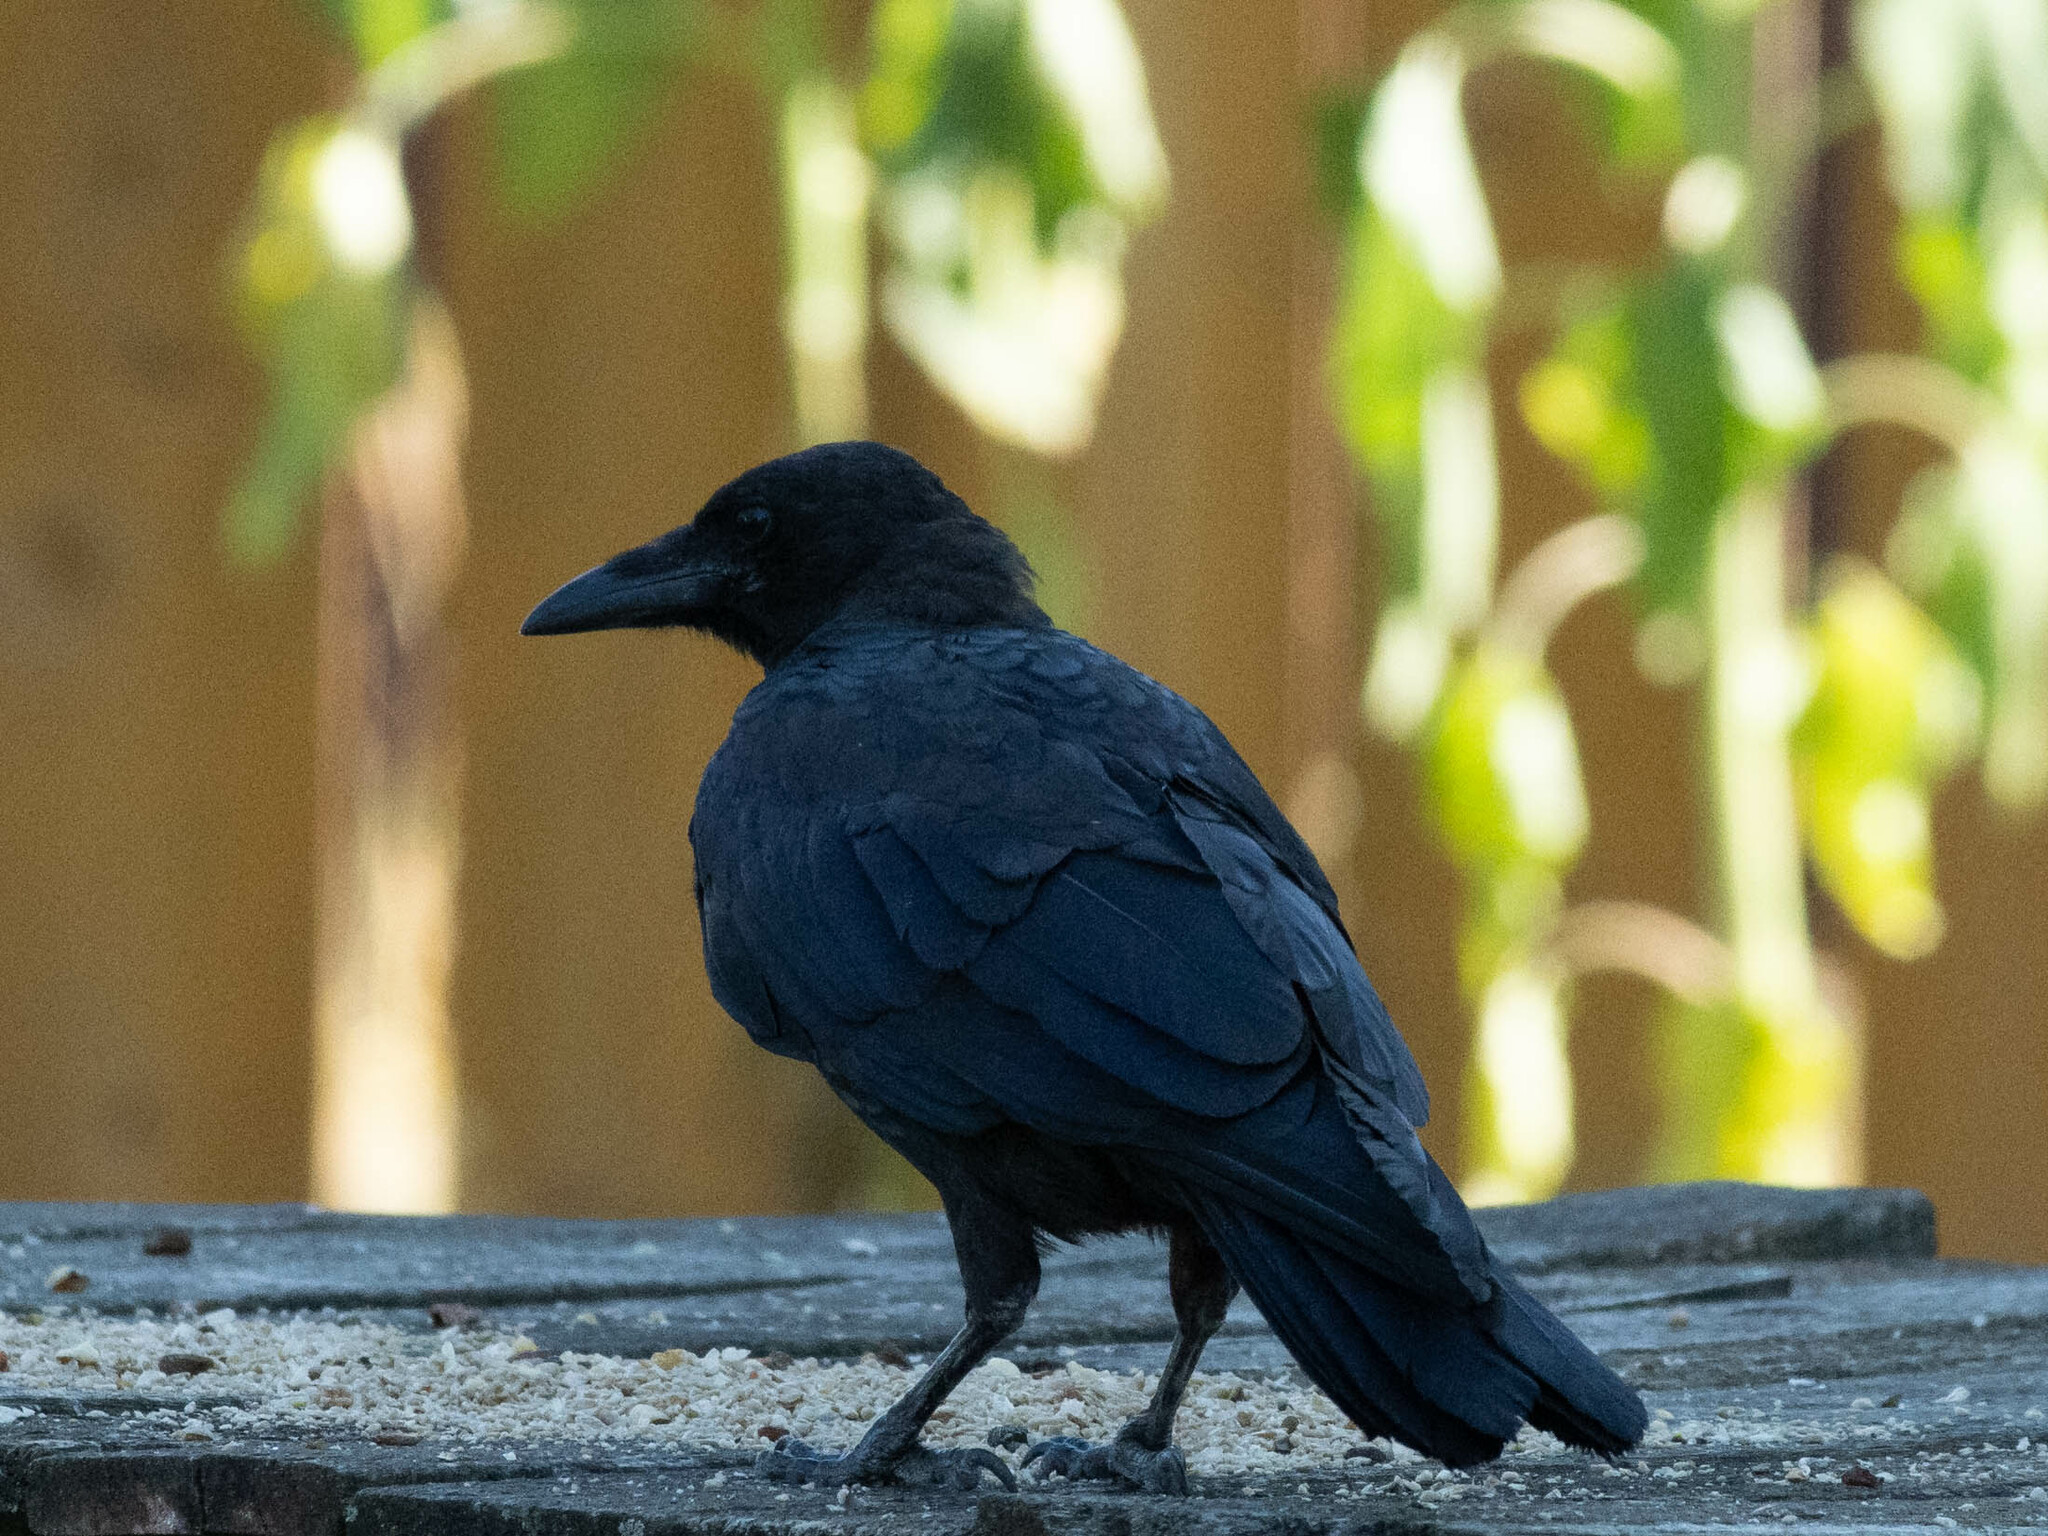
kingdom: Animalia
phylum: Chordata
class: Aves
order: Passeriformes
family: Corvidae
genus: Corvus
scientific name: Corvus brachyrhynchos
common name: American crow
